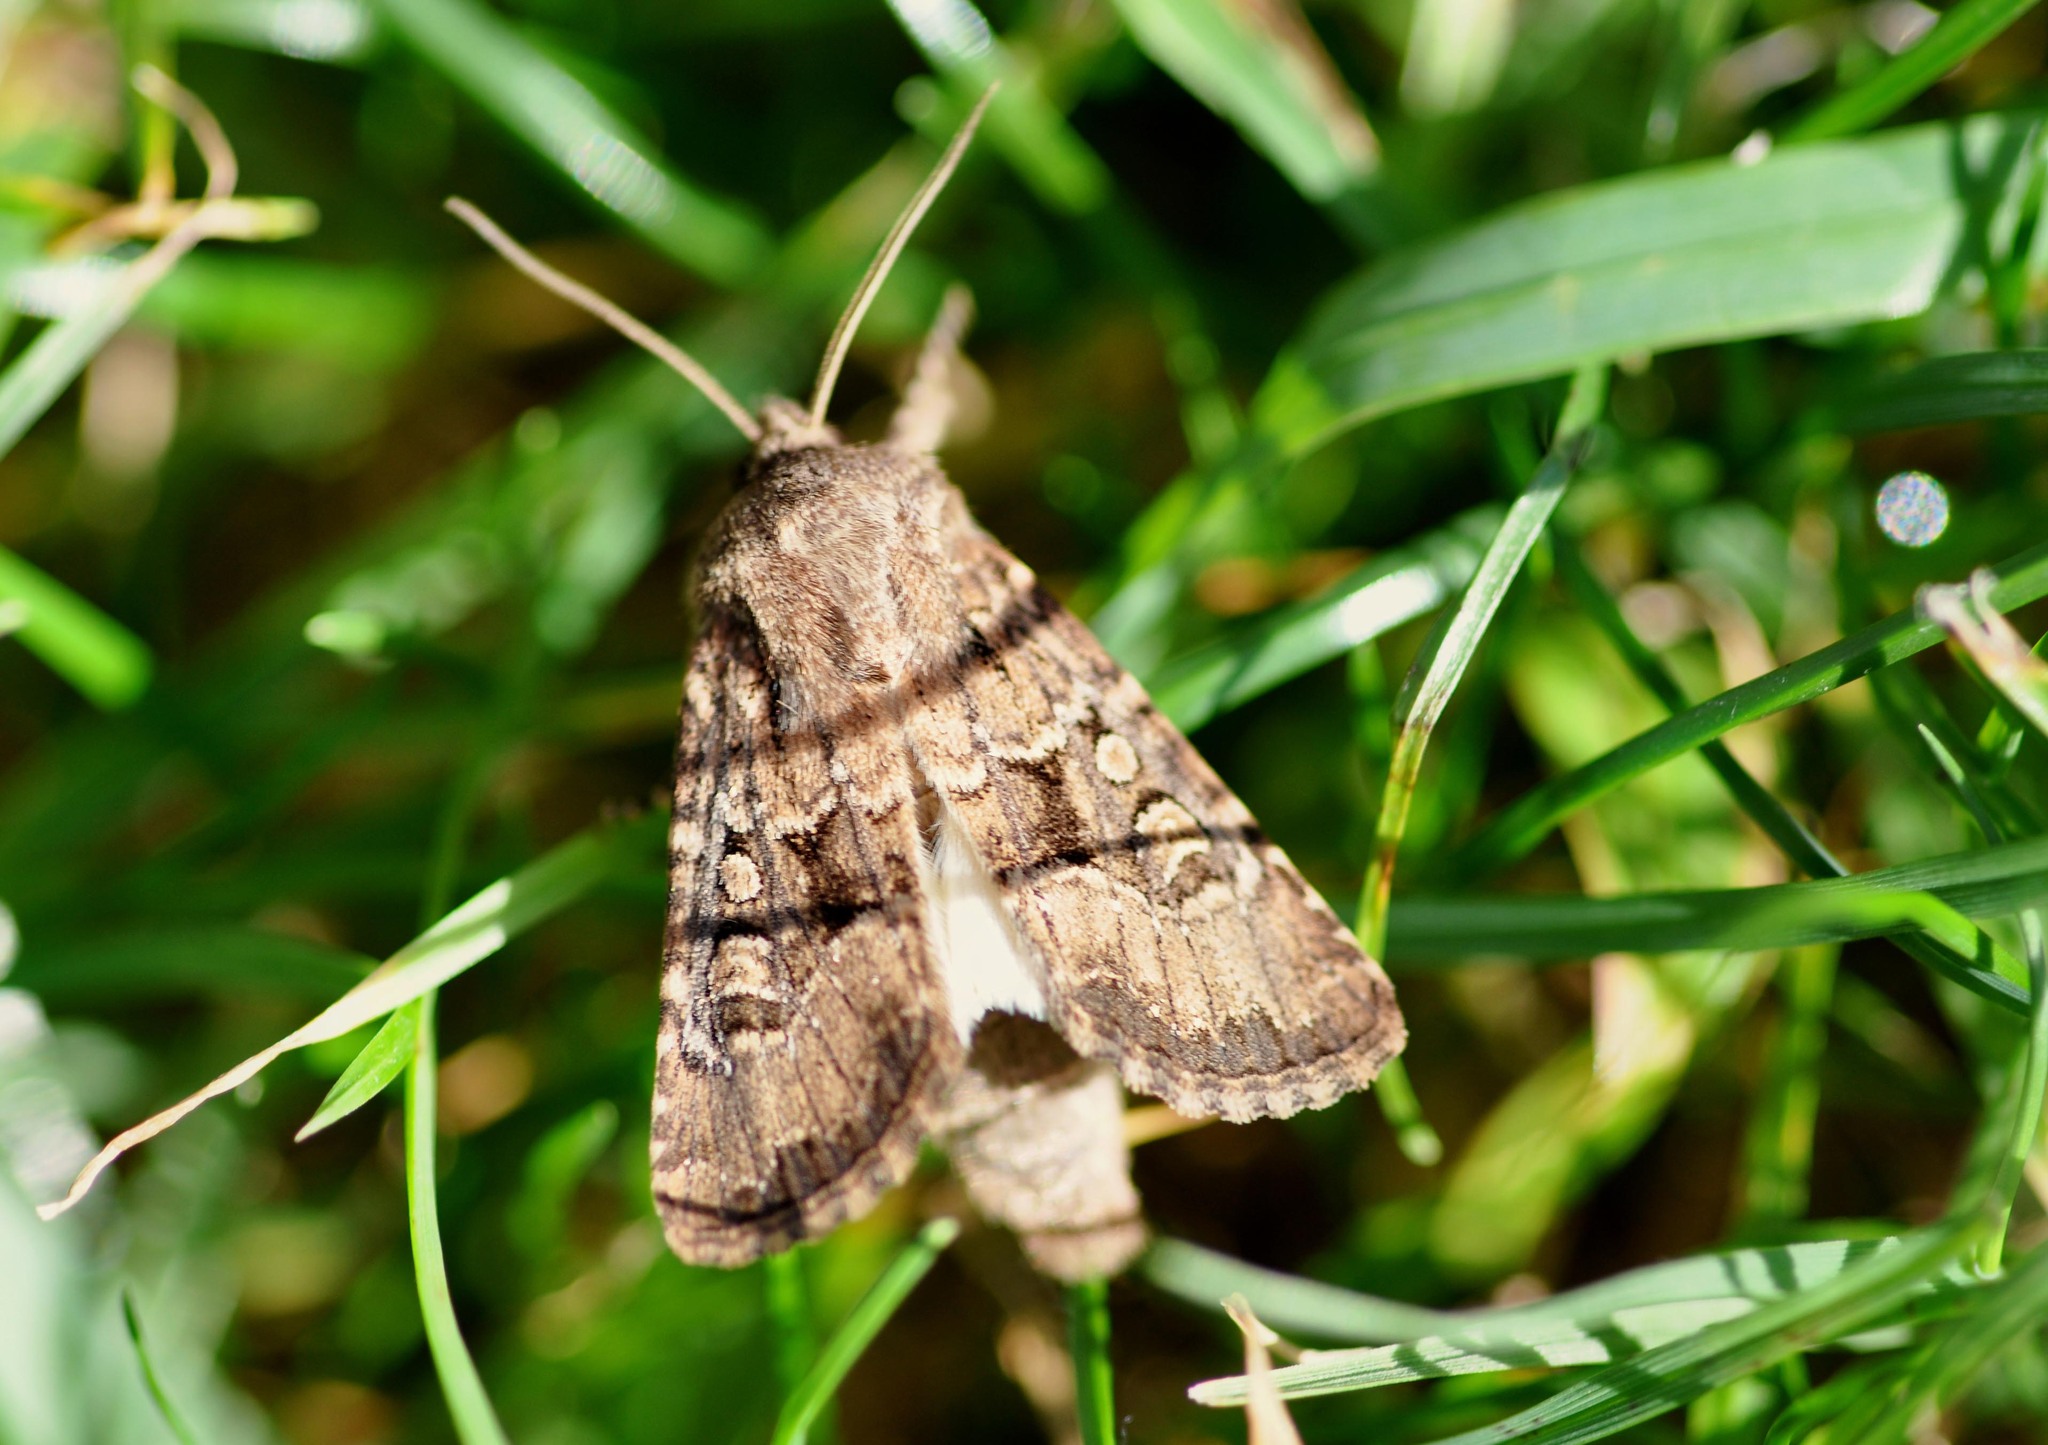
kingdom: Animalia
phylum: Arthropoda
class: Insecta
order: Lepidoptera
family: Noctuidae
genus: Luperina
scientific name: Luperina testacea
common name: Flounced rustic
